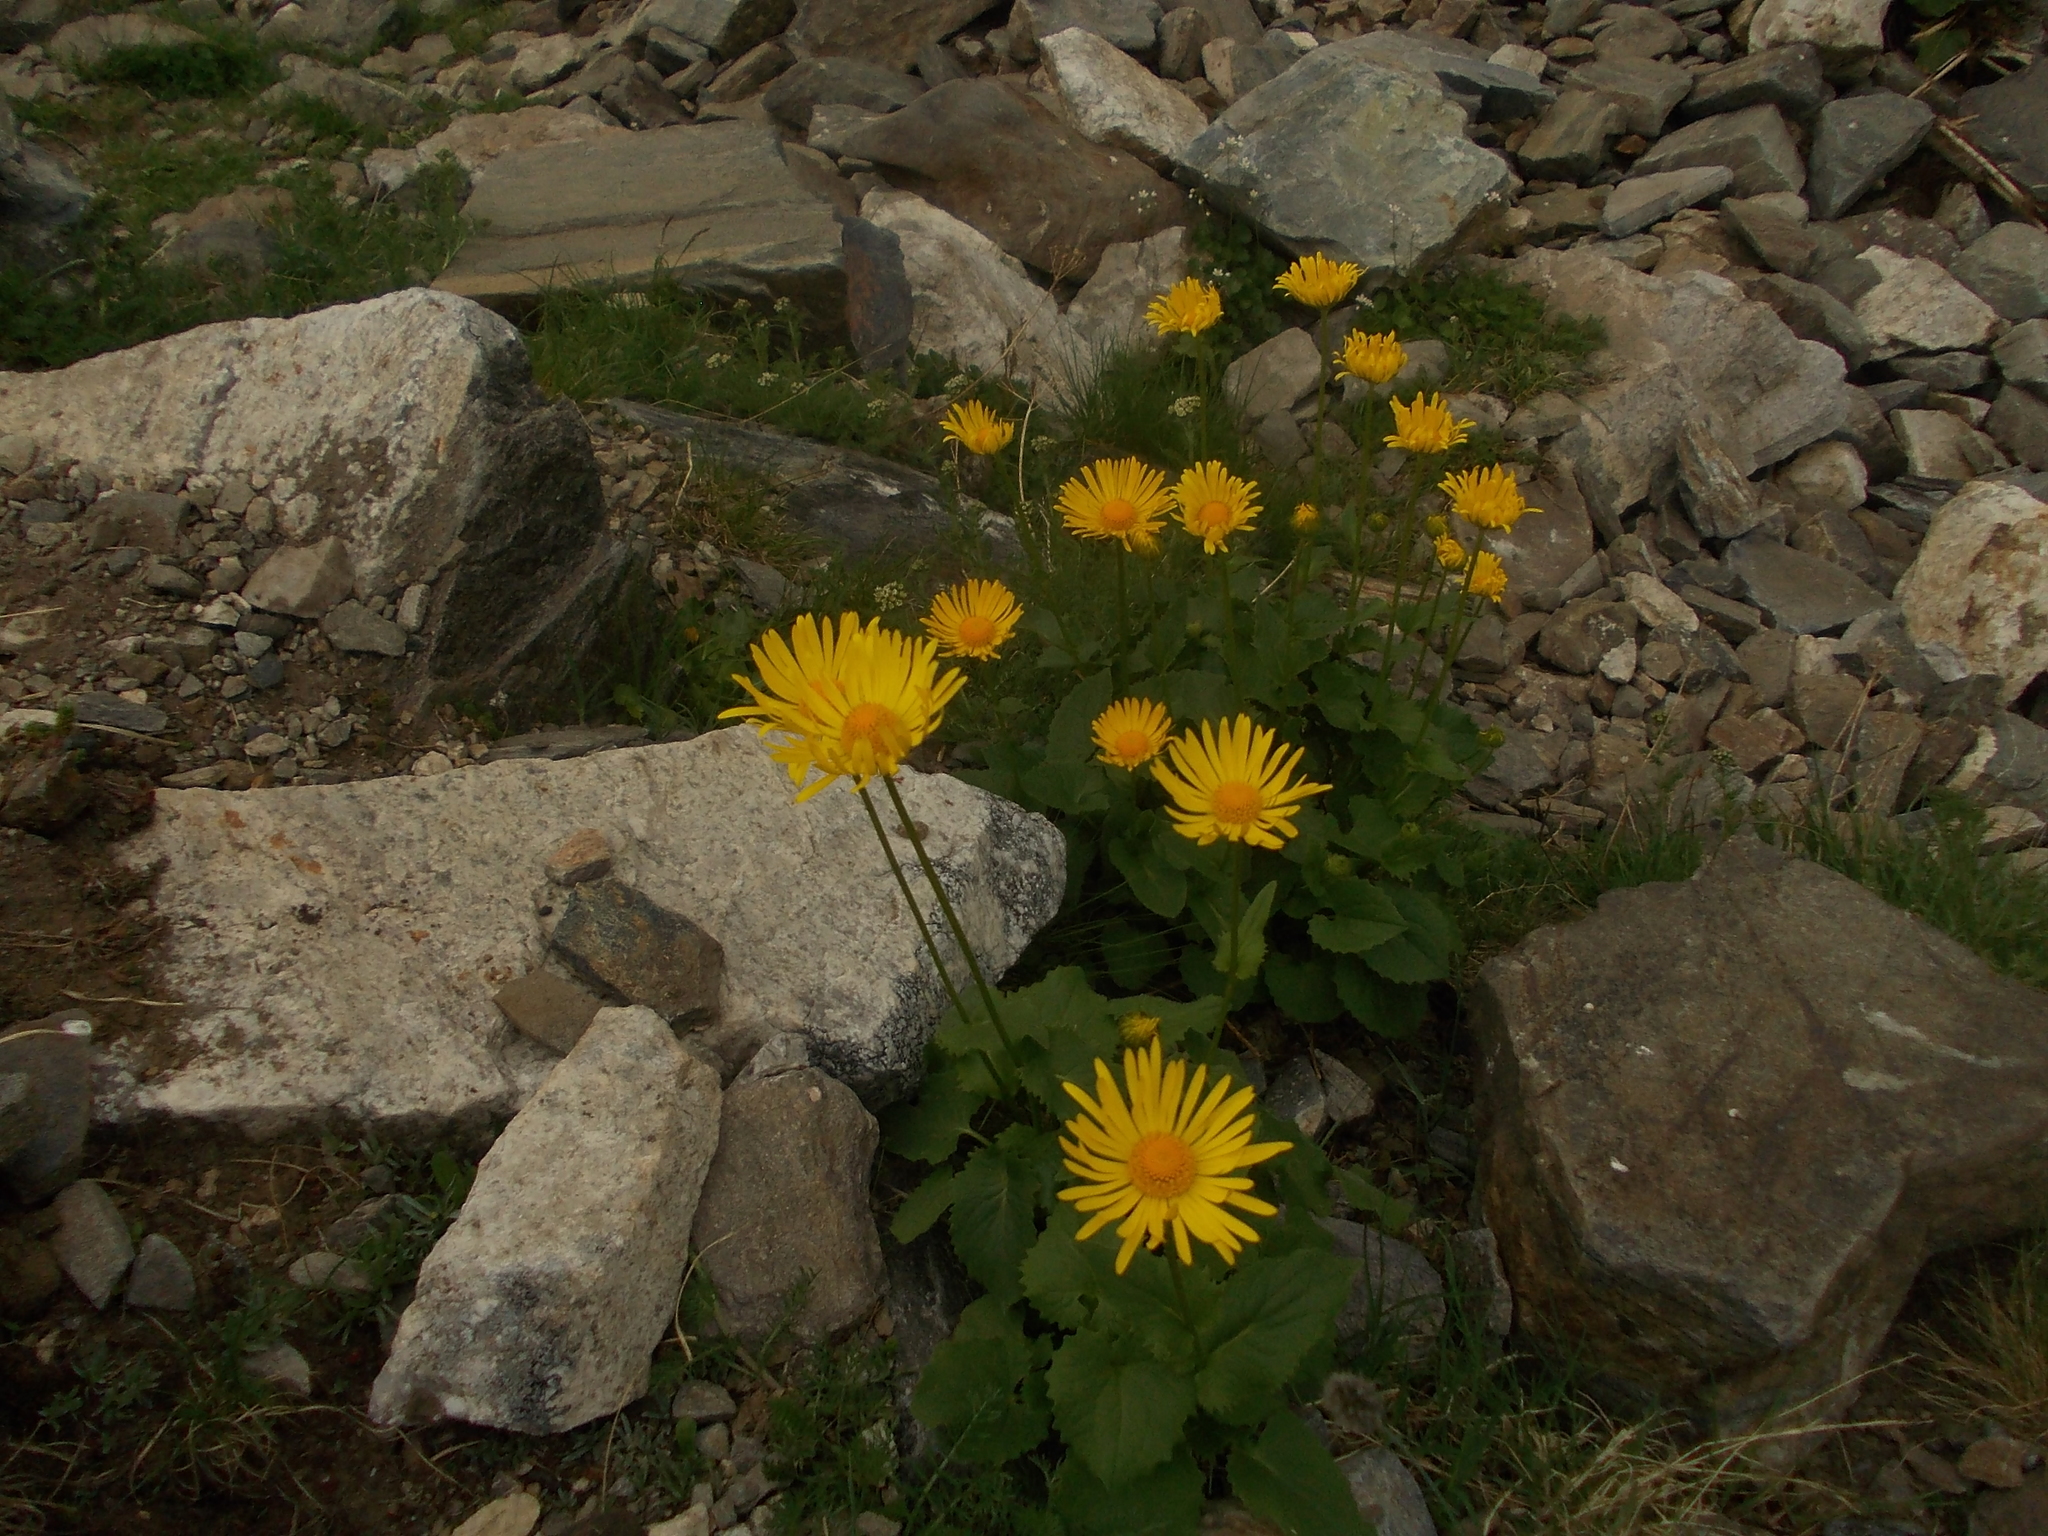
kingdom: Plantae
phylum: Tracheophyta
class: Magnoliopsida
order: Asterales
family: Asteraceae
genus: Doronicum
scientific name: Doronicum
